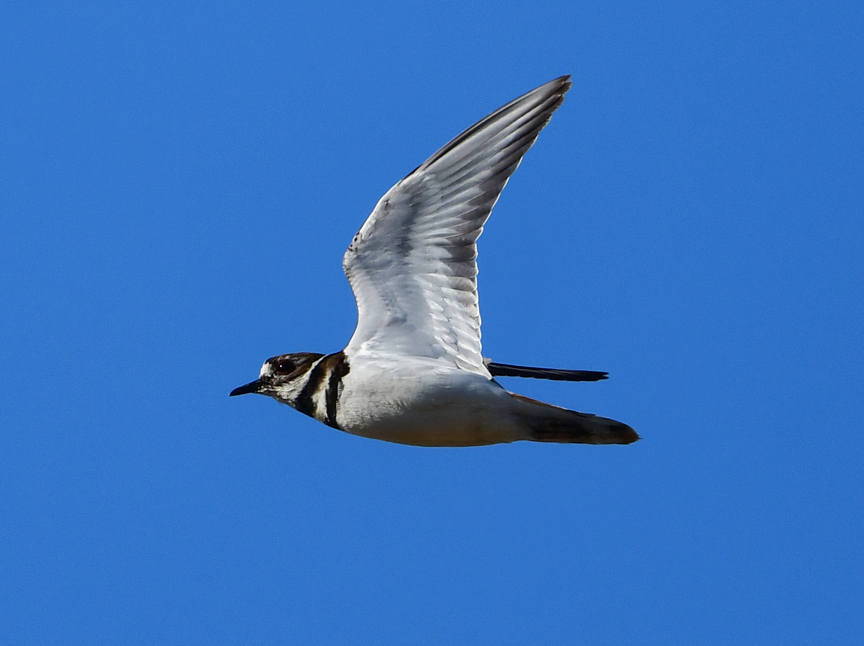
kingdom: Animalia
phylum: Chordata
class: Aves
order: Charadriiformes
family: Charadriidae
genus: Charadrius
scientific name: Charadrius vociferus
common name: Killdeer
